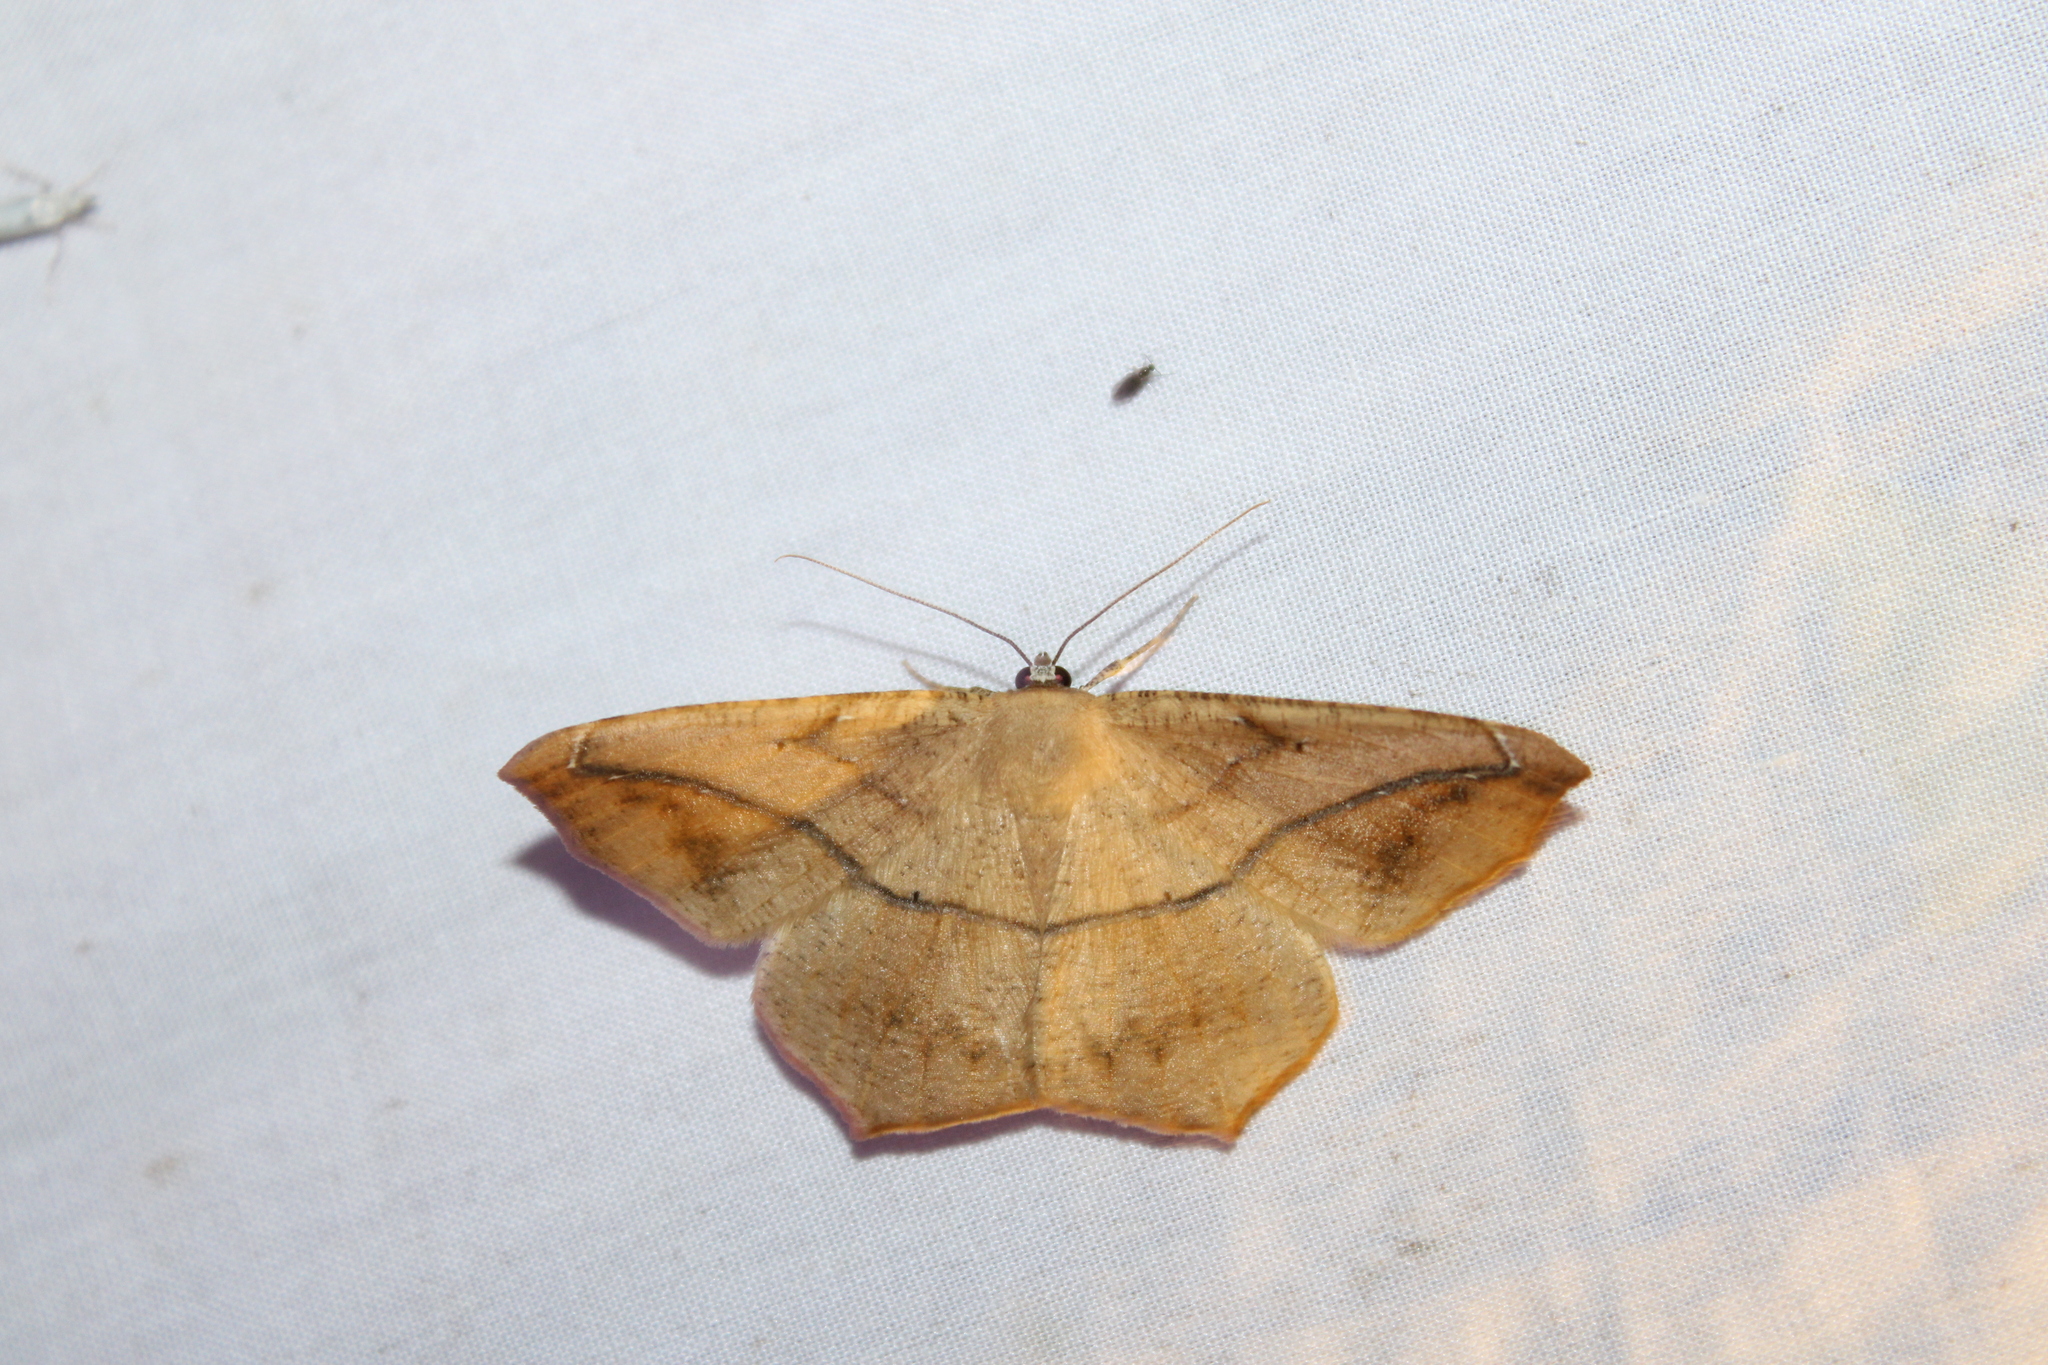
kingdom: Animalia
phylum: Arthropoda
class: Insecta
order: Lepidoptera
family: Geometridae
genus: Prochoerodes
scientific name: Prochoerodes lineola
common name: Large maple spanworm
